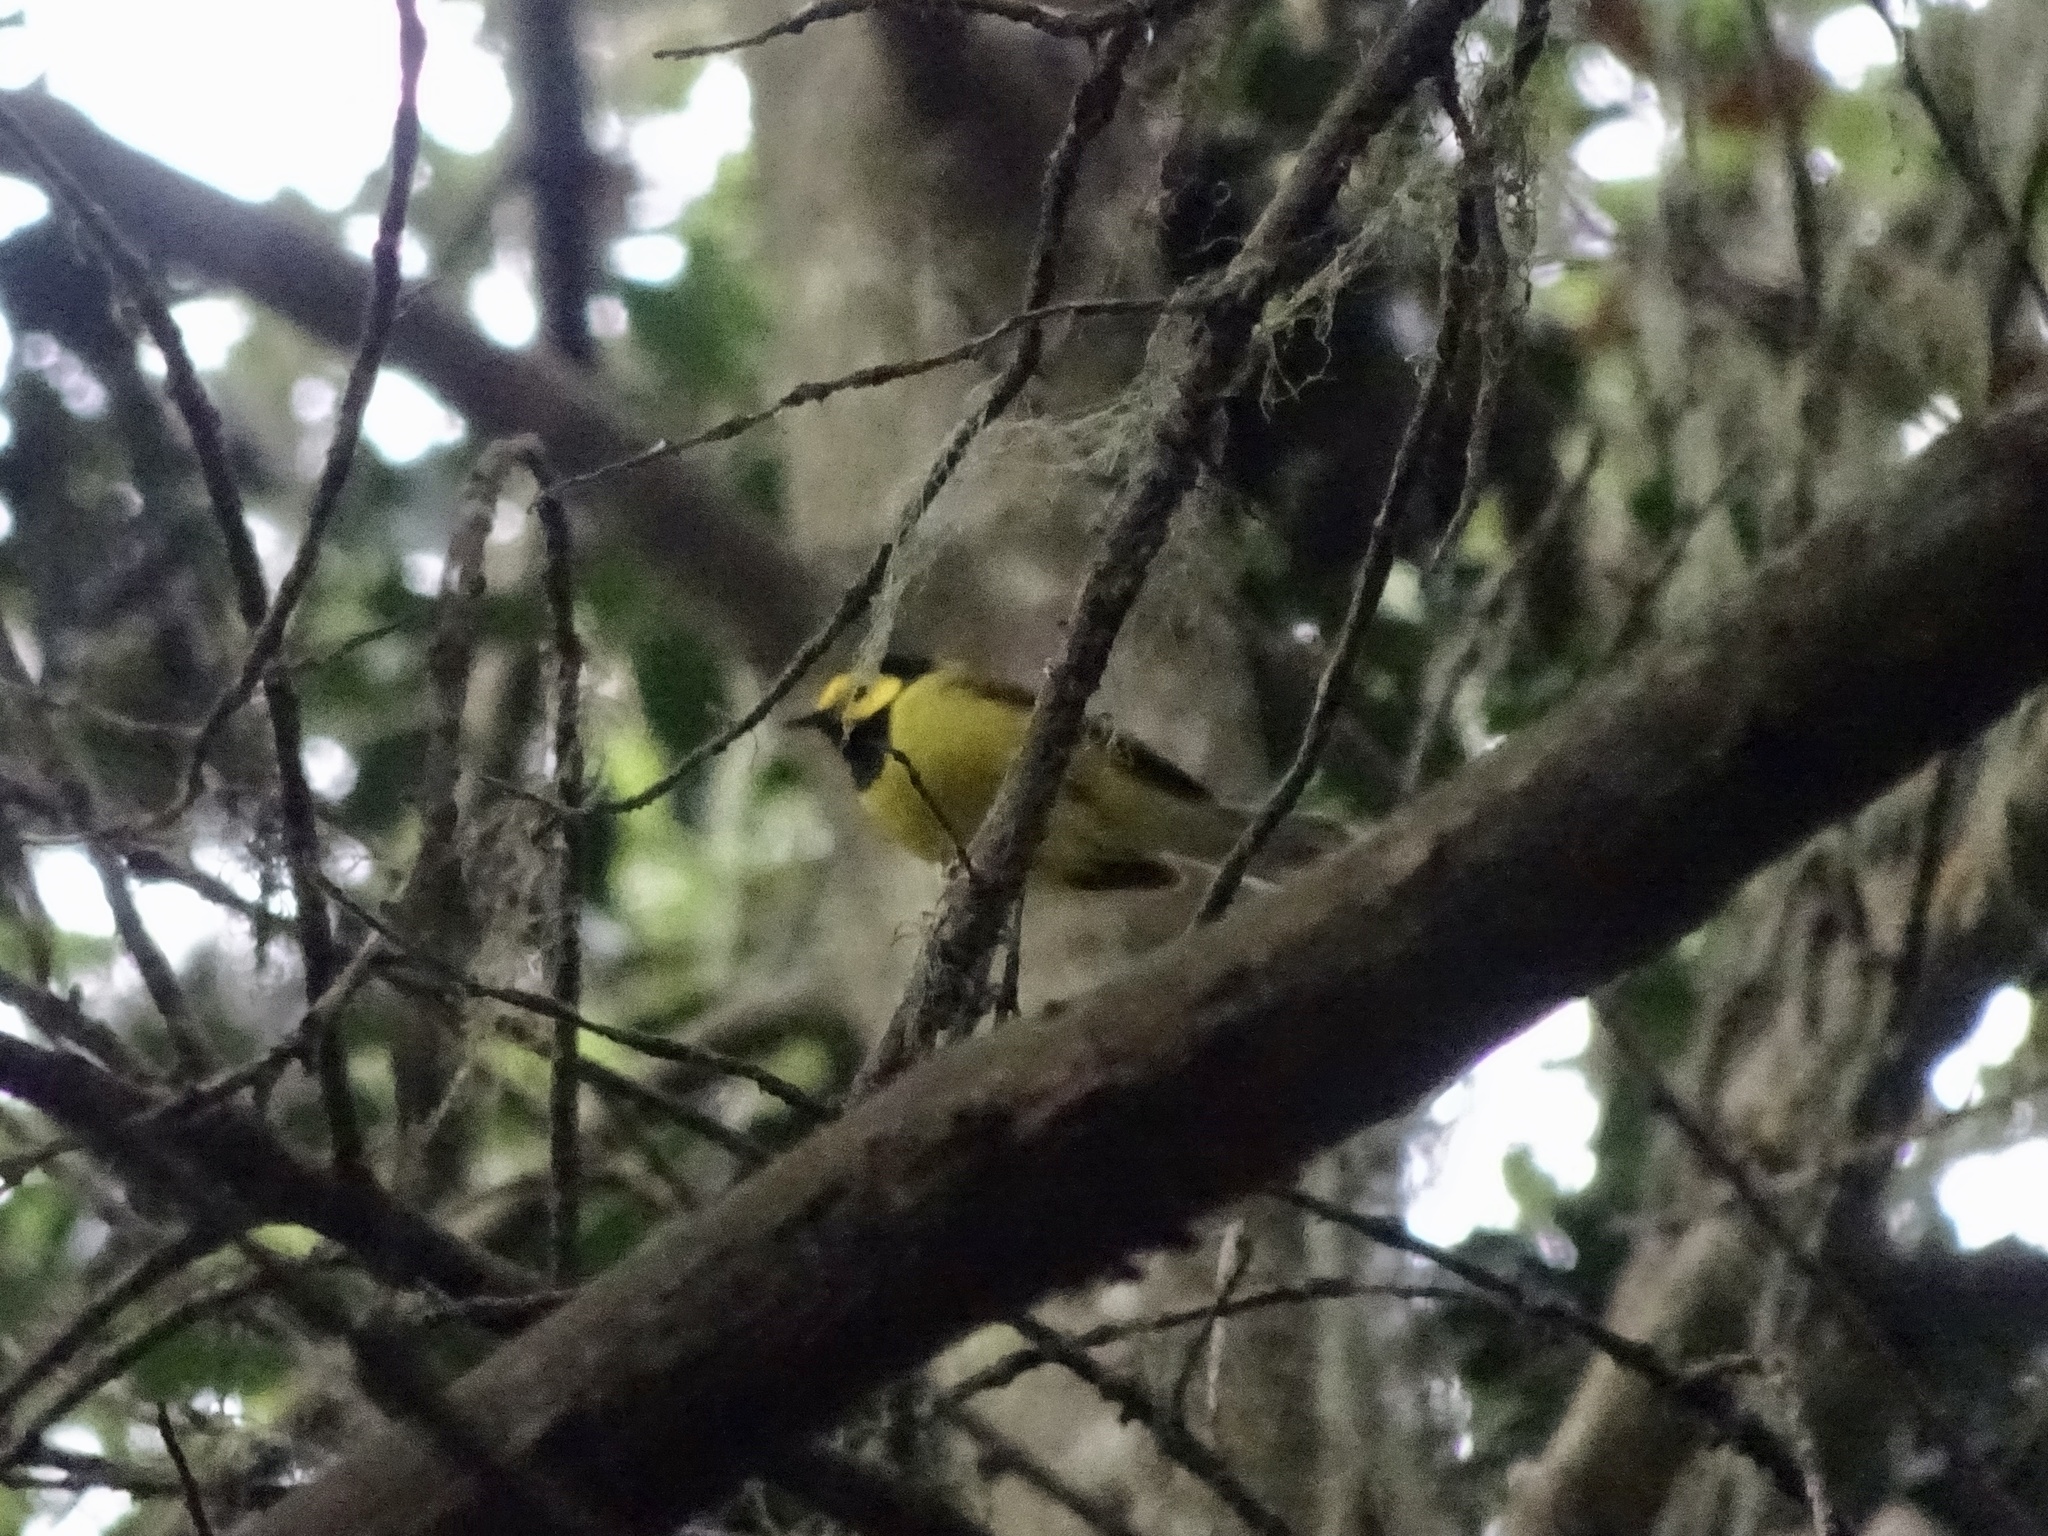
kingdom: Animalia
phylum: Chordata
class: Aves
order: Passeriformes
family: Parulidae
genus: Setophaga
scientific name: Setophaga citrina
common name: Hooded warbler
